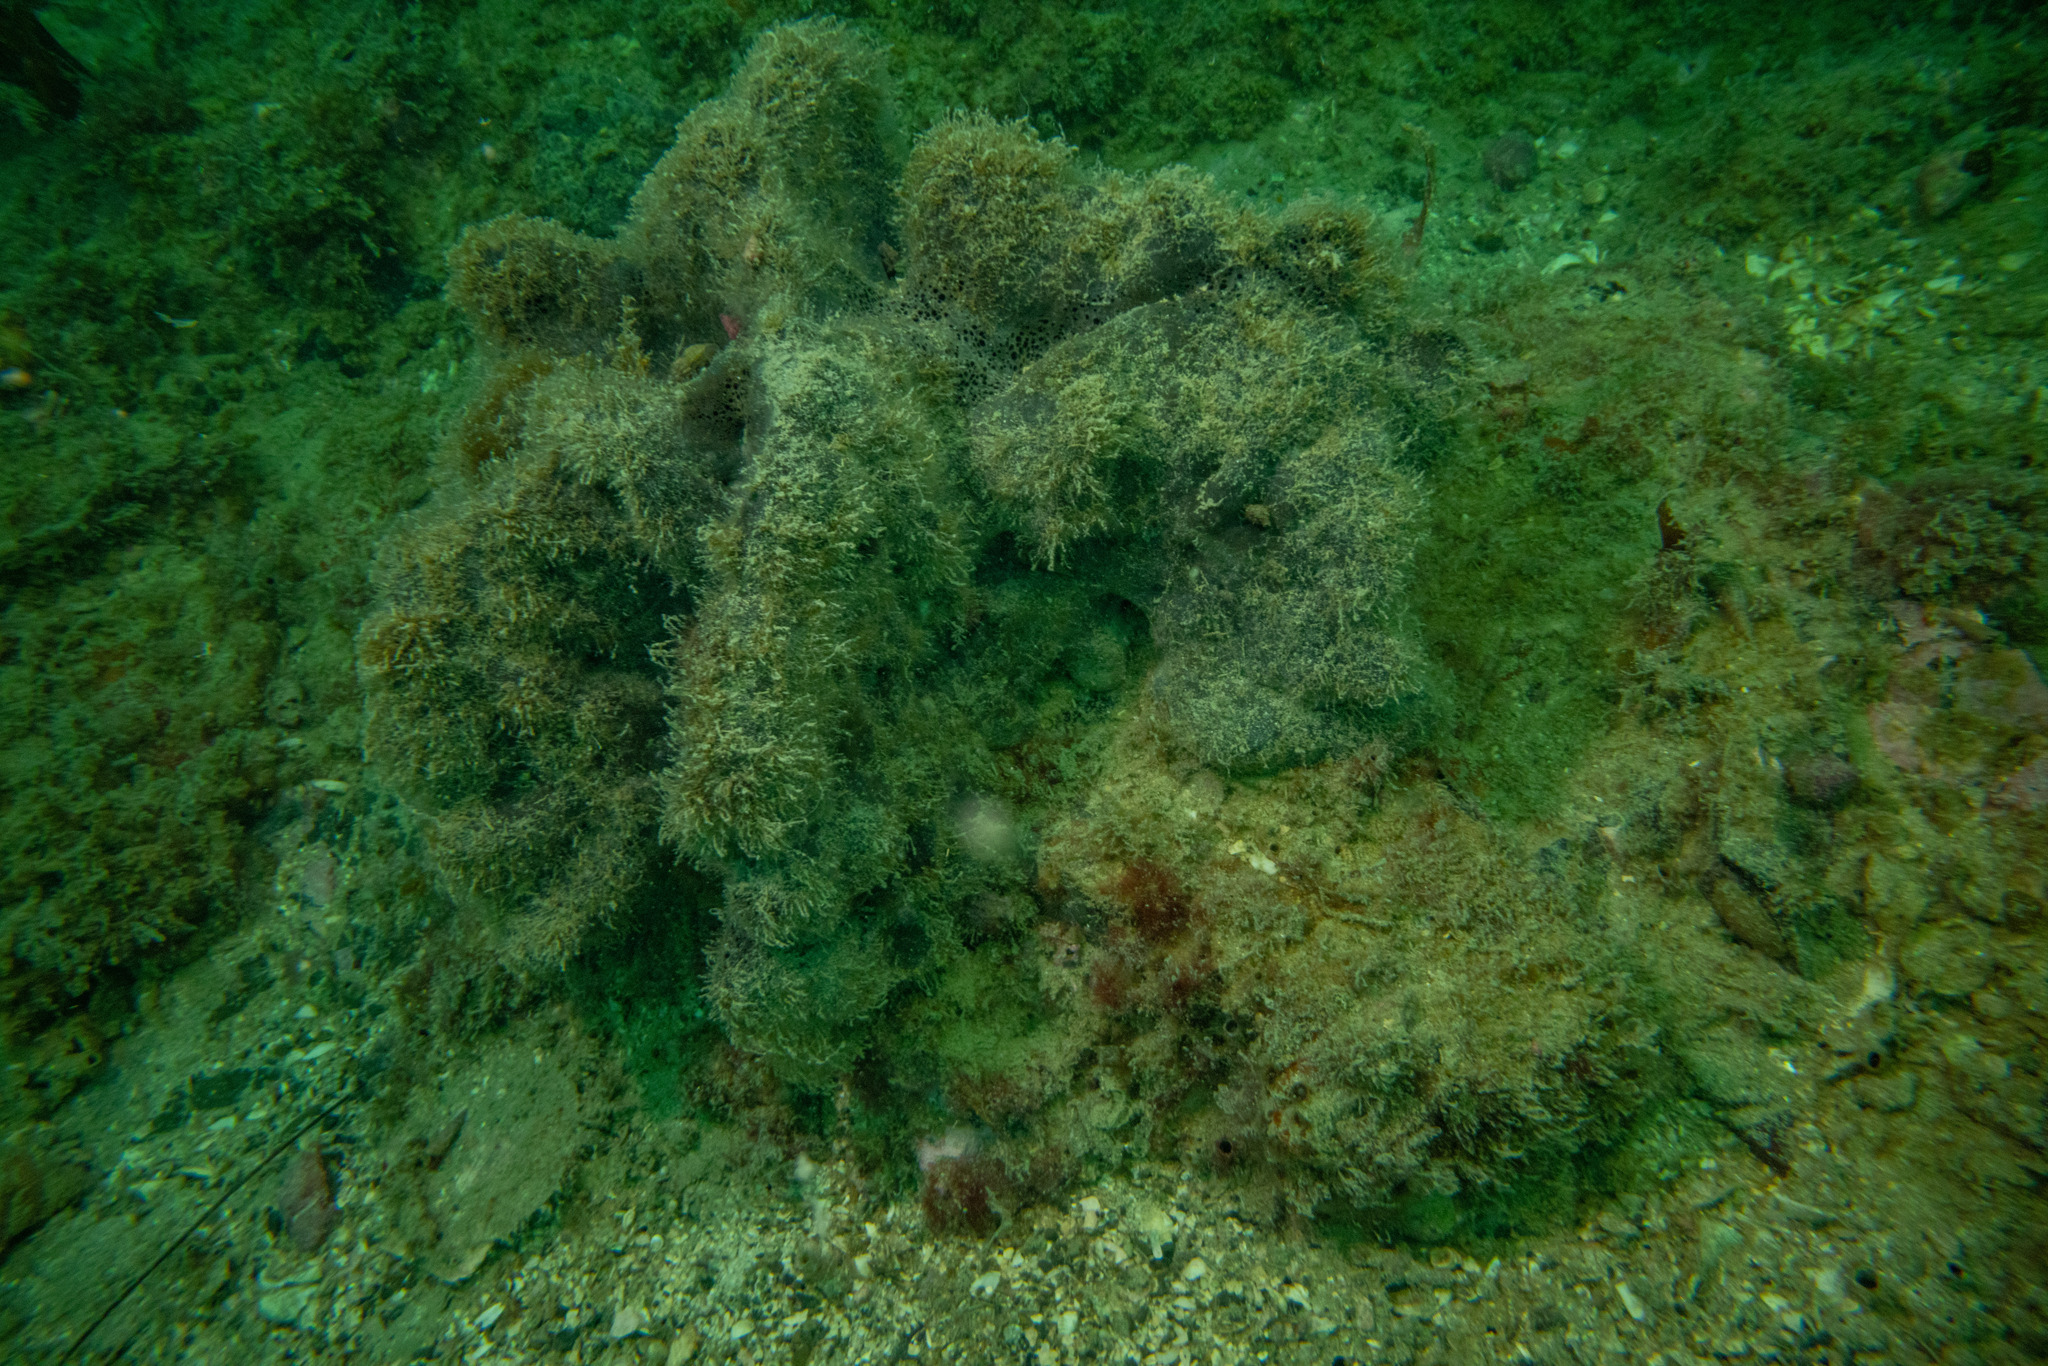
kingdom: Animalia
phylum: Porifera
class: Demospongiae
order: Tetractinellida
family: Ancorinidae
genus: Ecionemia
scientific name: Ecionemia alata
